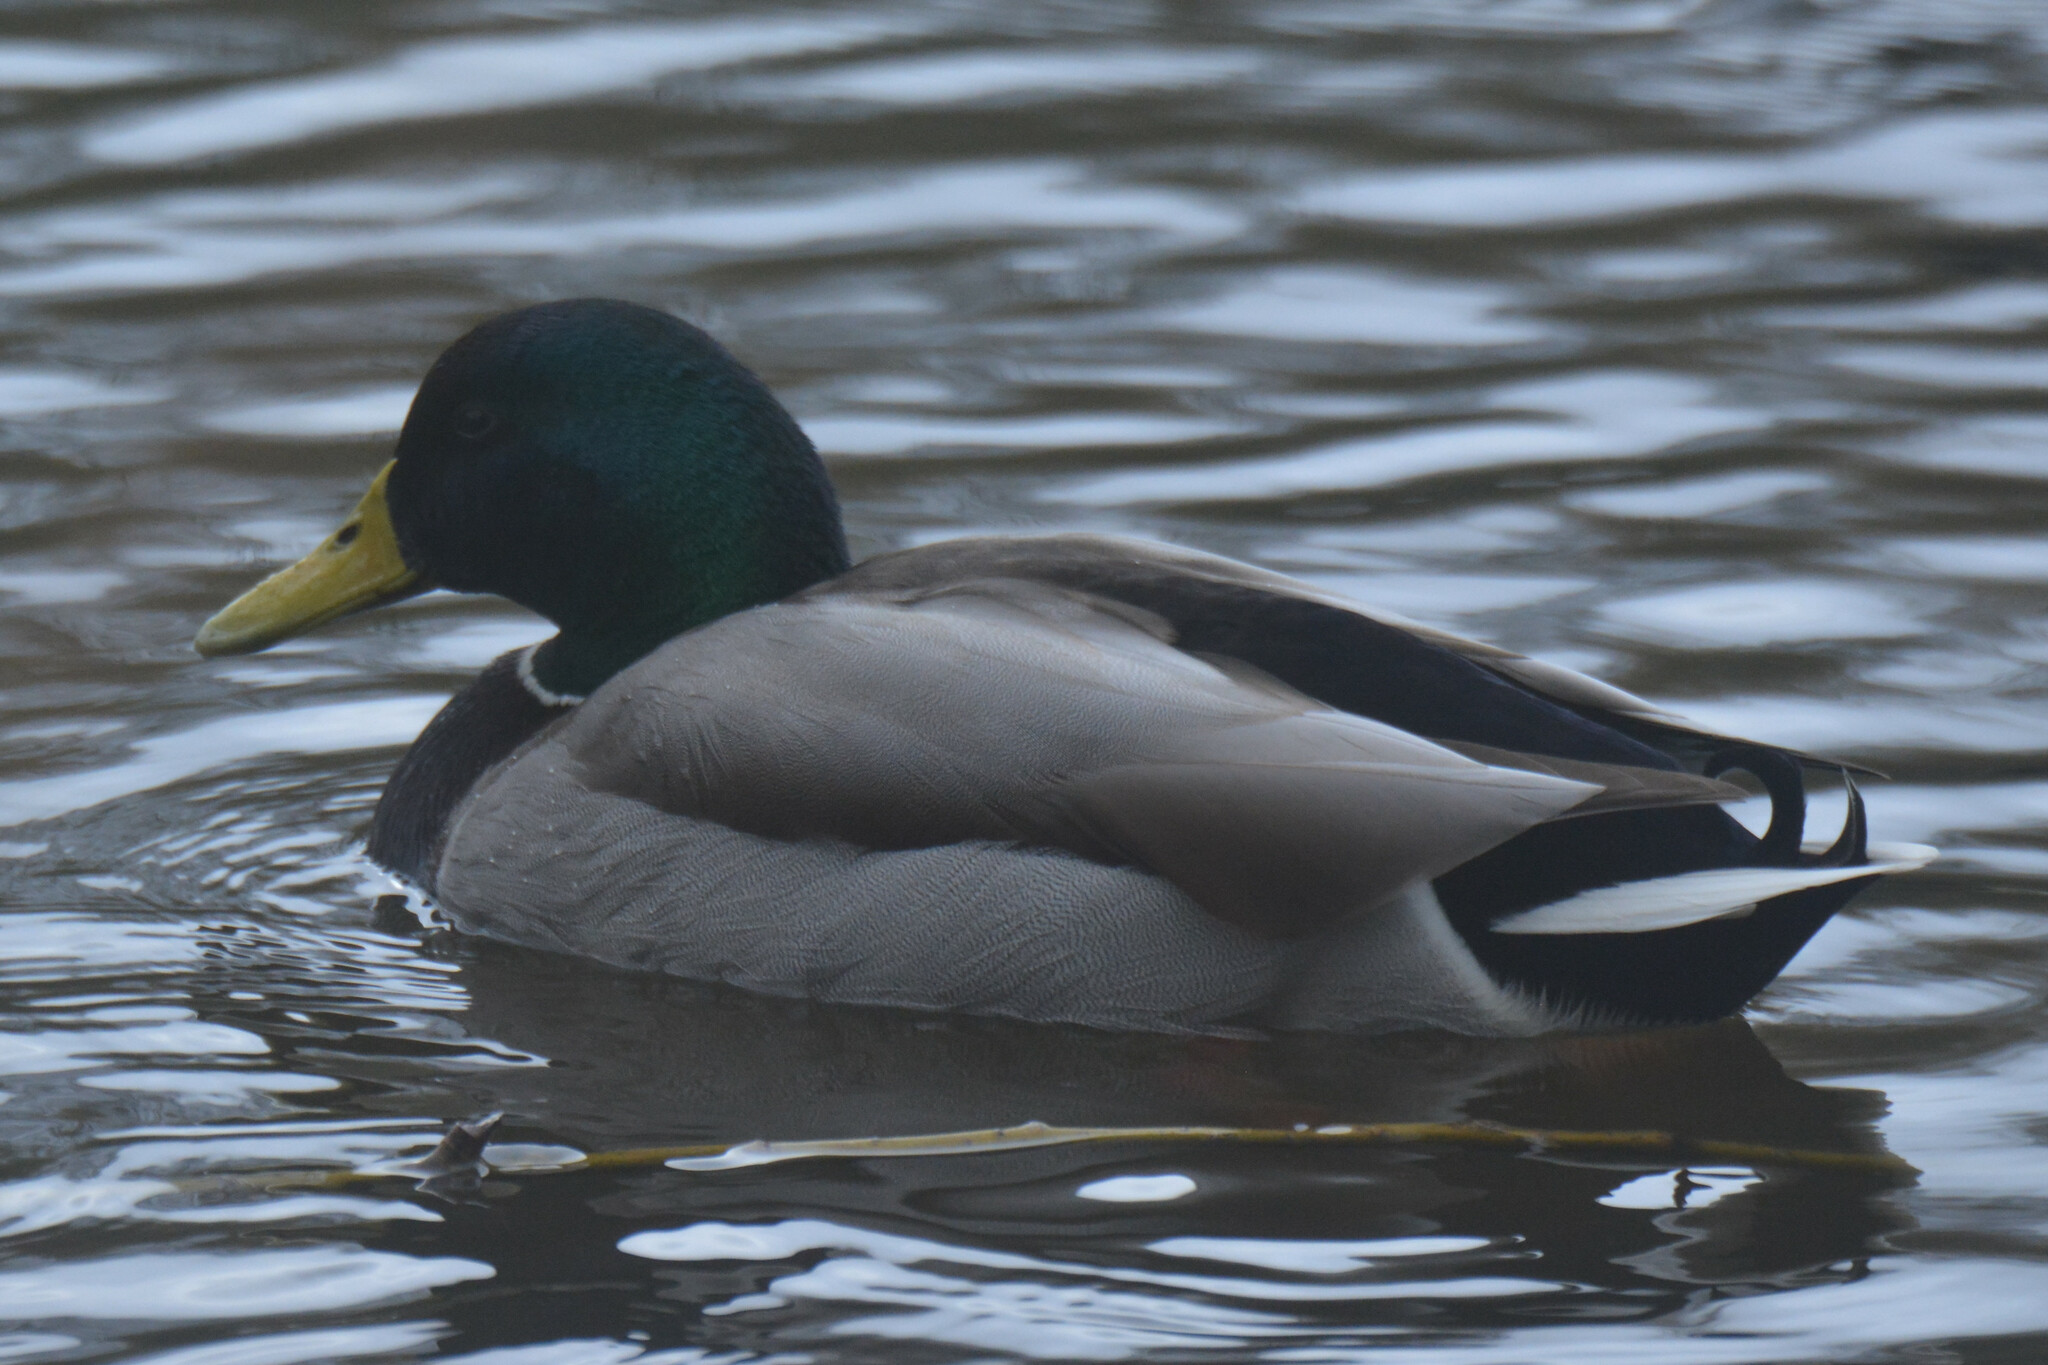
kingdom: Animalia
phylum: Chordata
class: Aves
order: Anseriformes
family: Anatidae
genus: Anas
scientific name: Anas platyrhynchos
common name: Mallard
